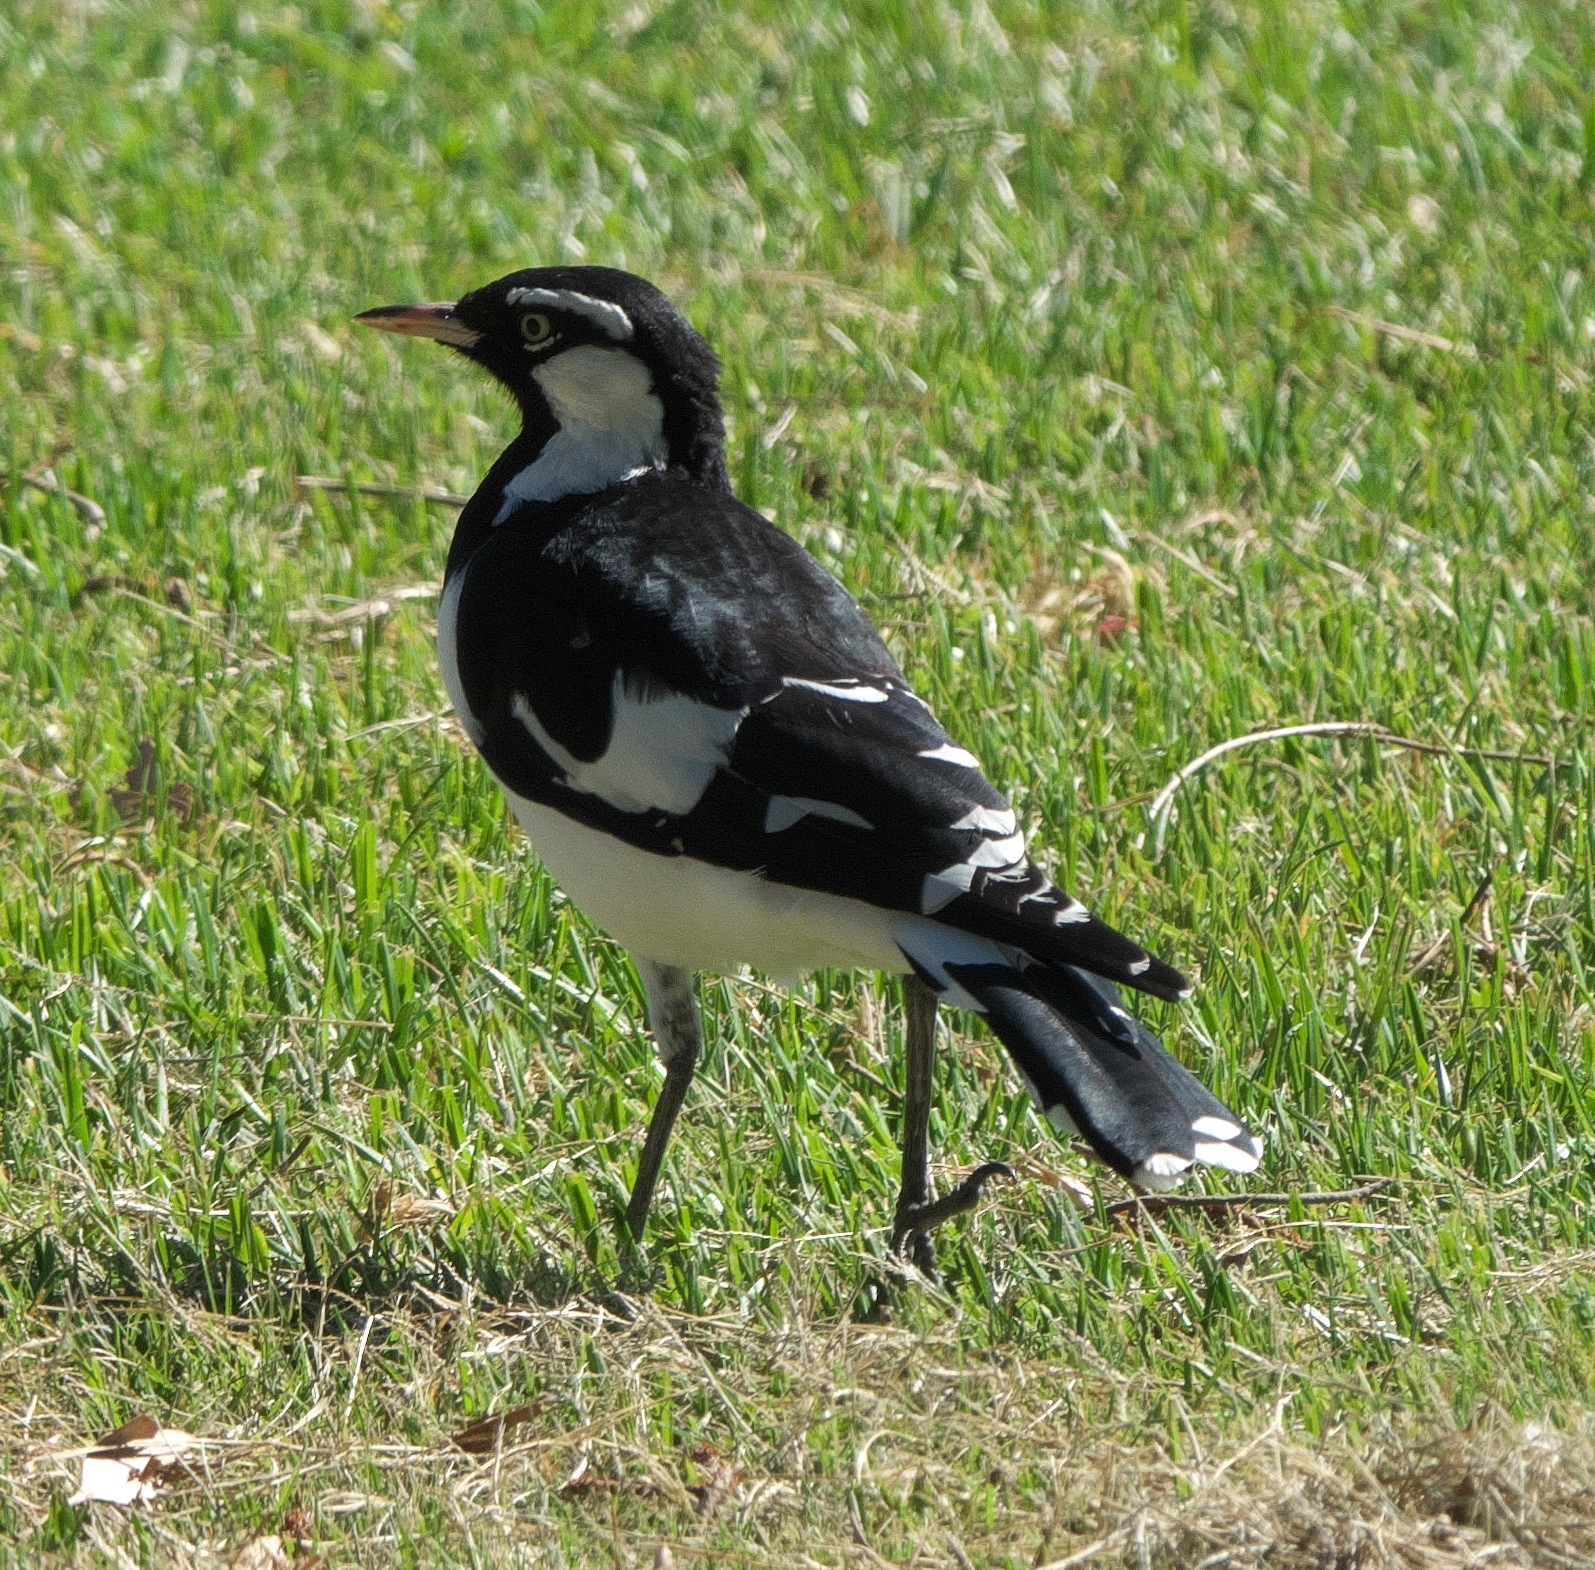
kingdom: Animalia
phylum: Chordata
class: Aves
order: Passeriformes
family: Monarchidae
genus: Grallina
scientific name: Grallina cyanoleuca
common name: Magpie-lark
